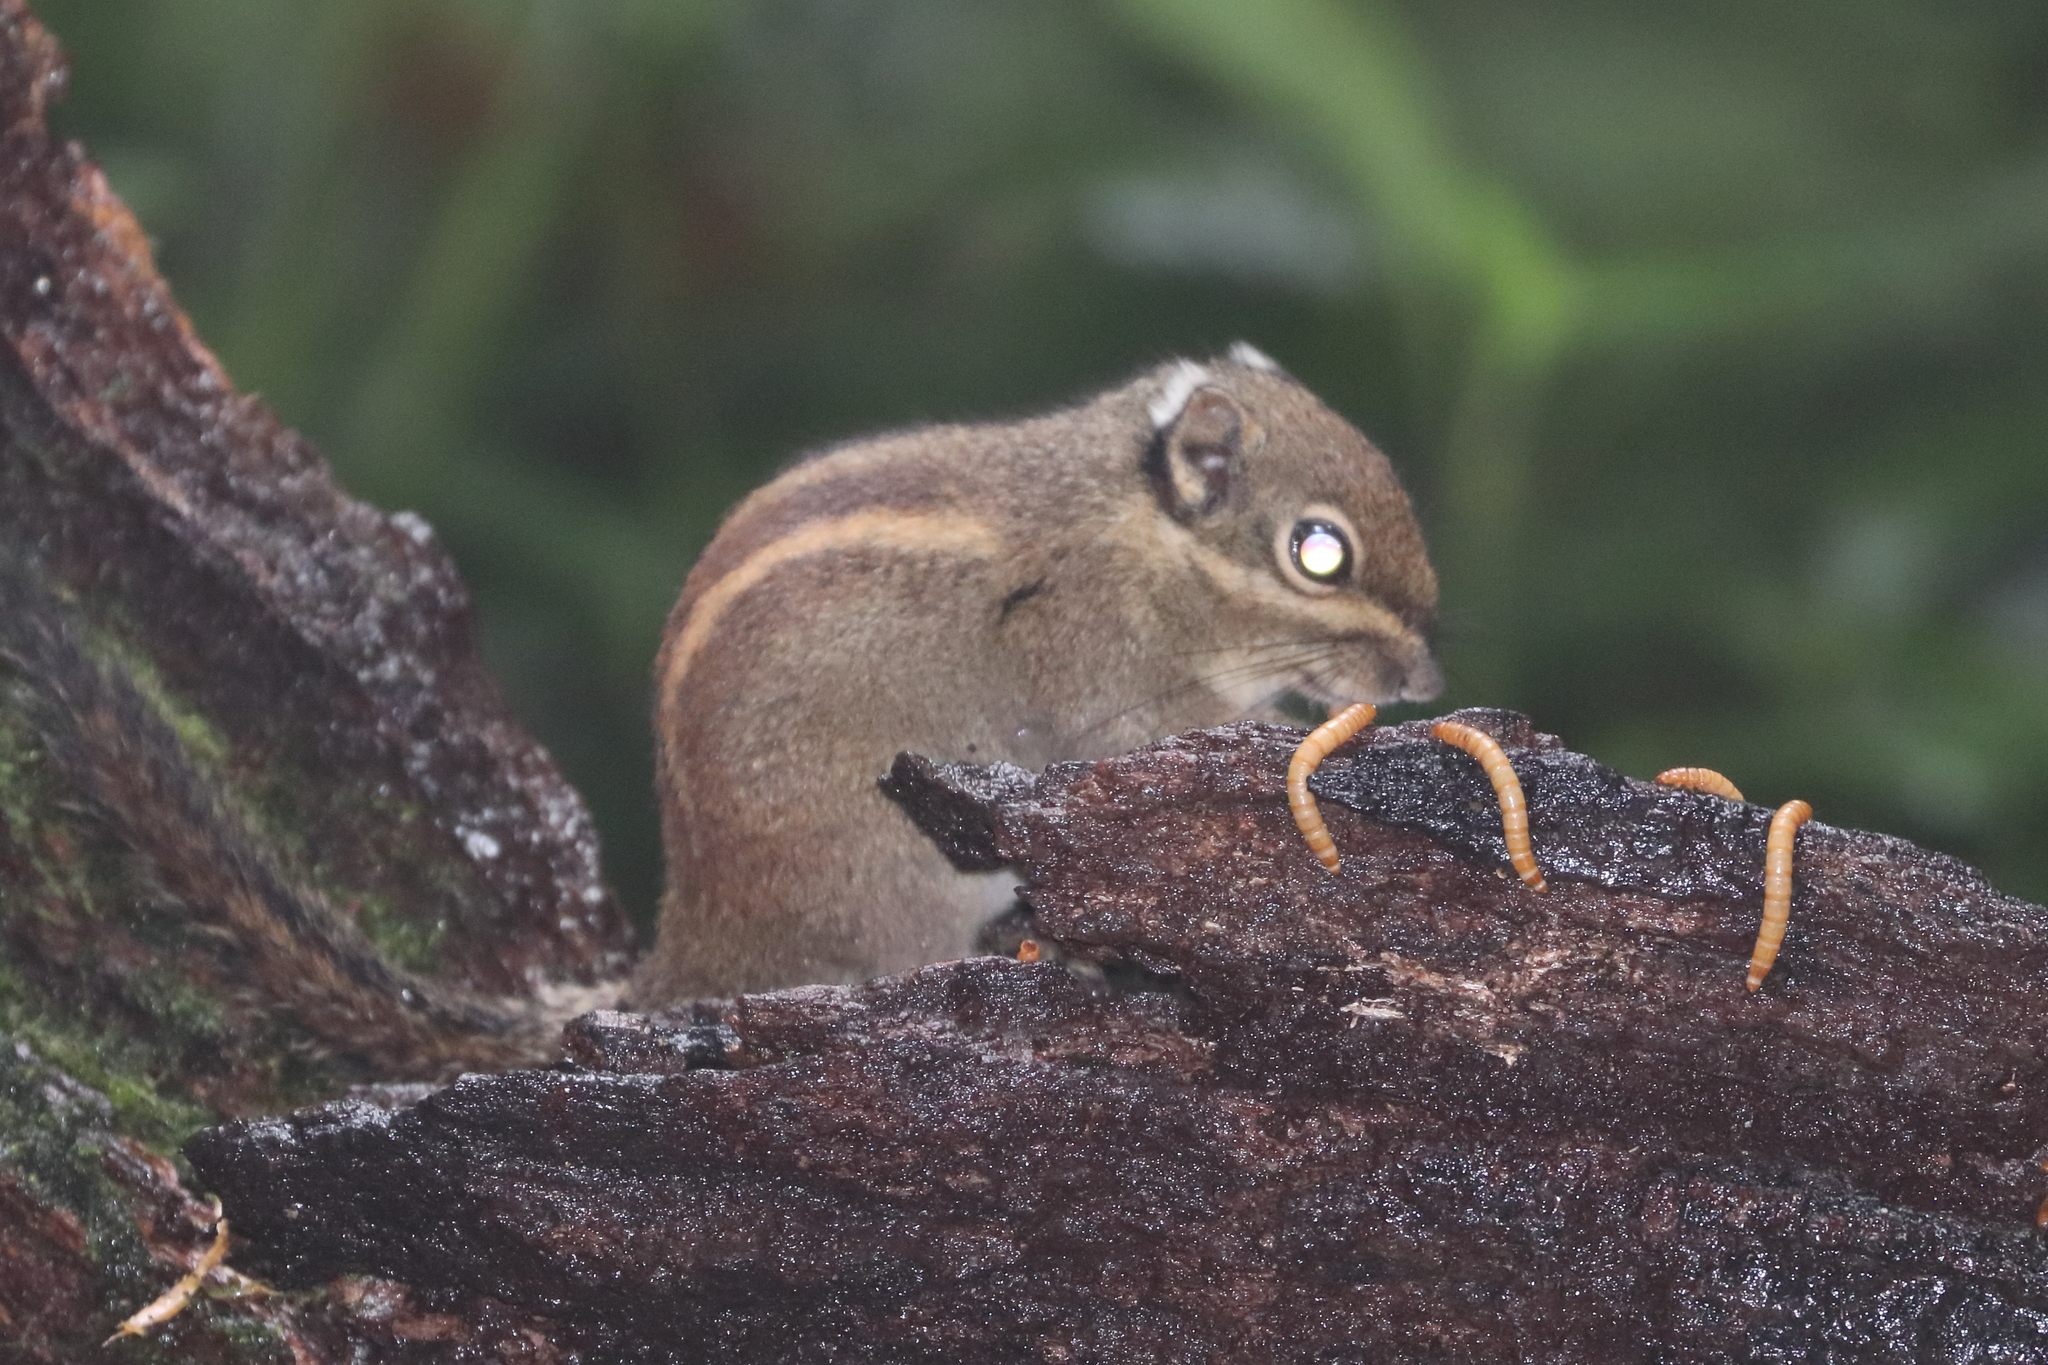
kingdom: Animalia
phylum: Chordata
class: Mammalia
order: Rodentia
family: Sciuridae
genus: Tamiops
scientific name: Tamiops maritimus
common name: Maritime striped squirrel
